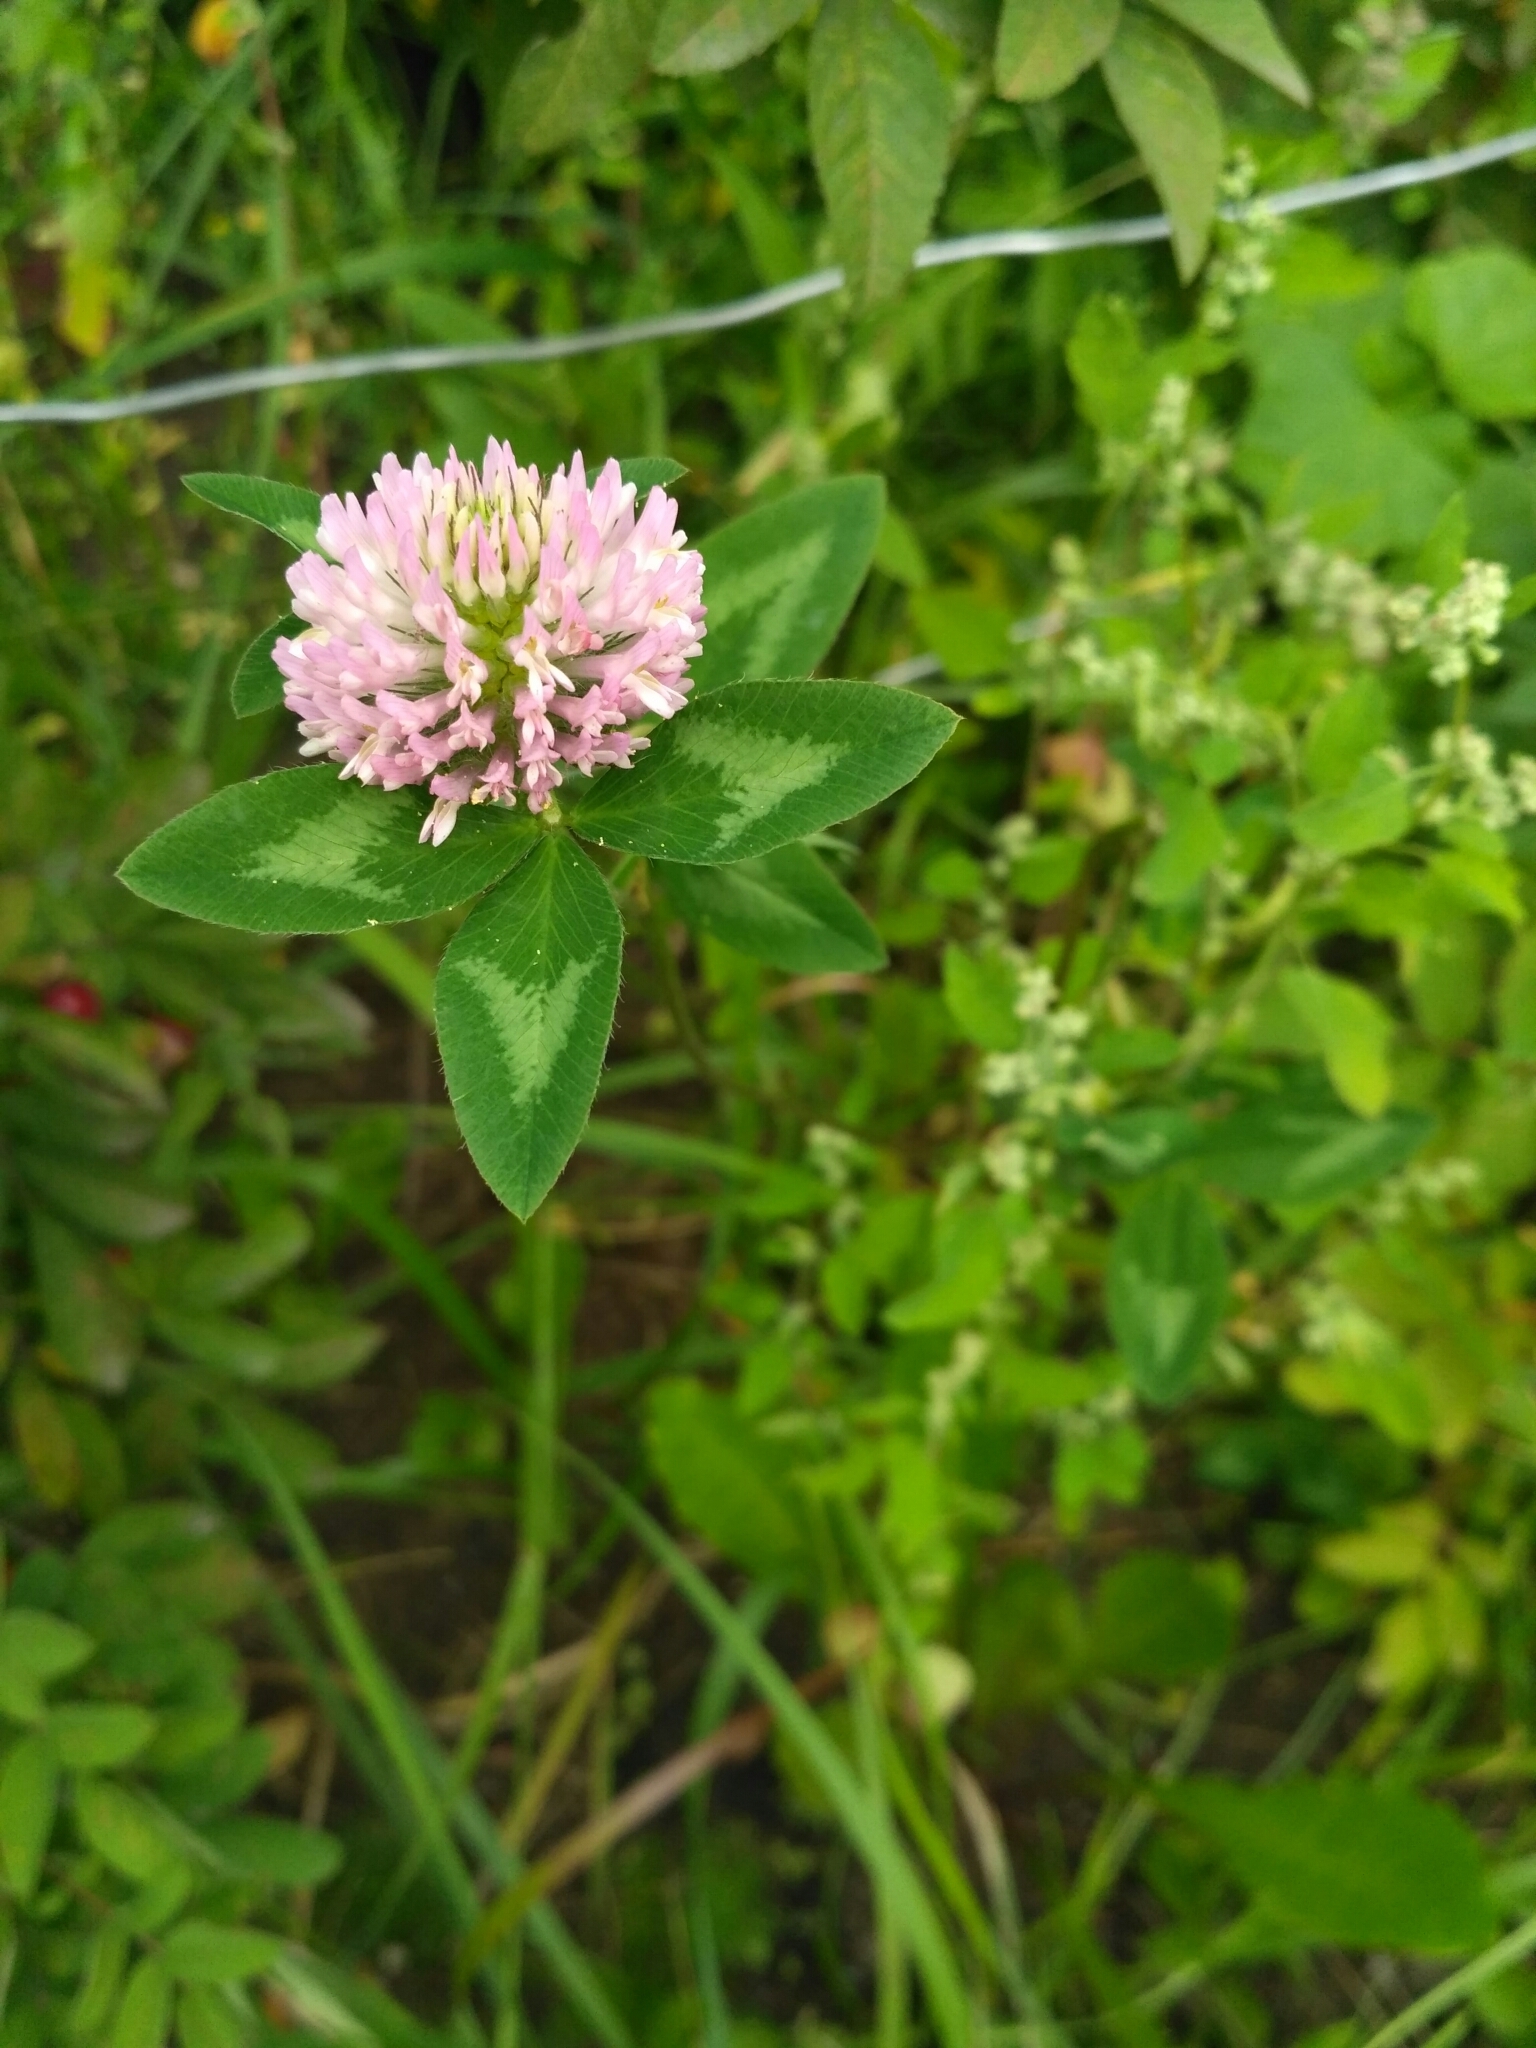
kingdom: Plantae
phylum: Tracheophyta
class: Magnoliopsida
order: Fabales
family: Fabaceae
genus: Trifolium
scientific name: Trifolium pratense
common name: Red clover
